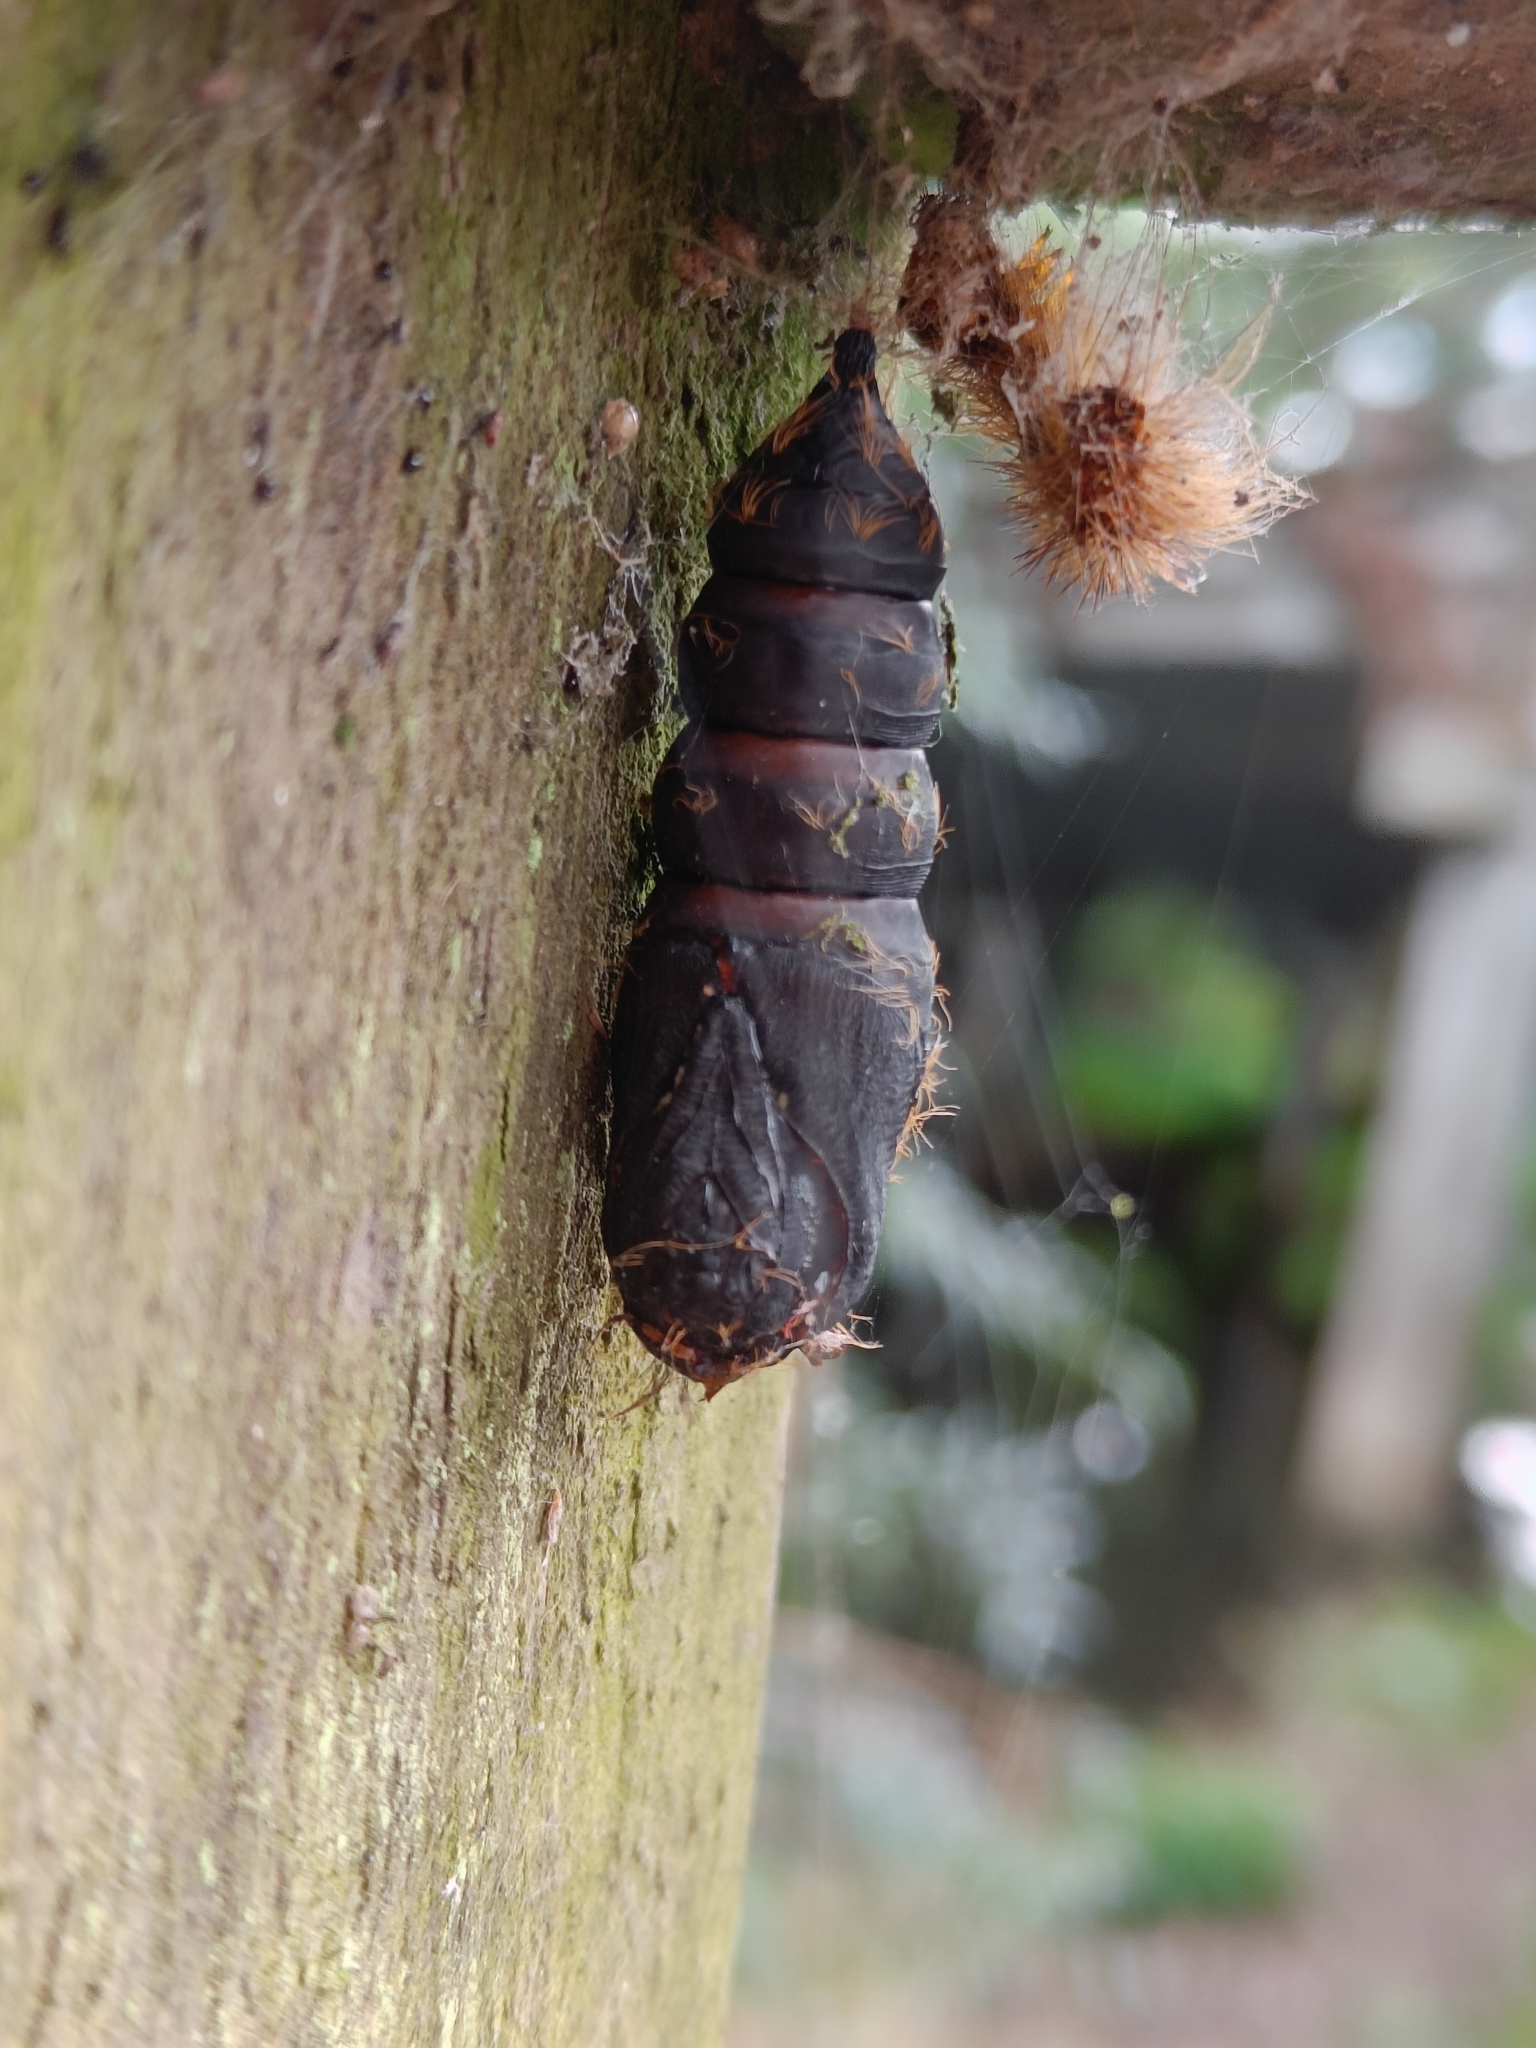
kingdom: Animalia
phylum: Arthropoda
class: Insecta
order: Lepidoptera
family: Erebidae
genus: Lymantria
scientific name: Lymantria dispar
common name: Gypsy moth
